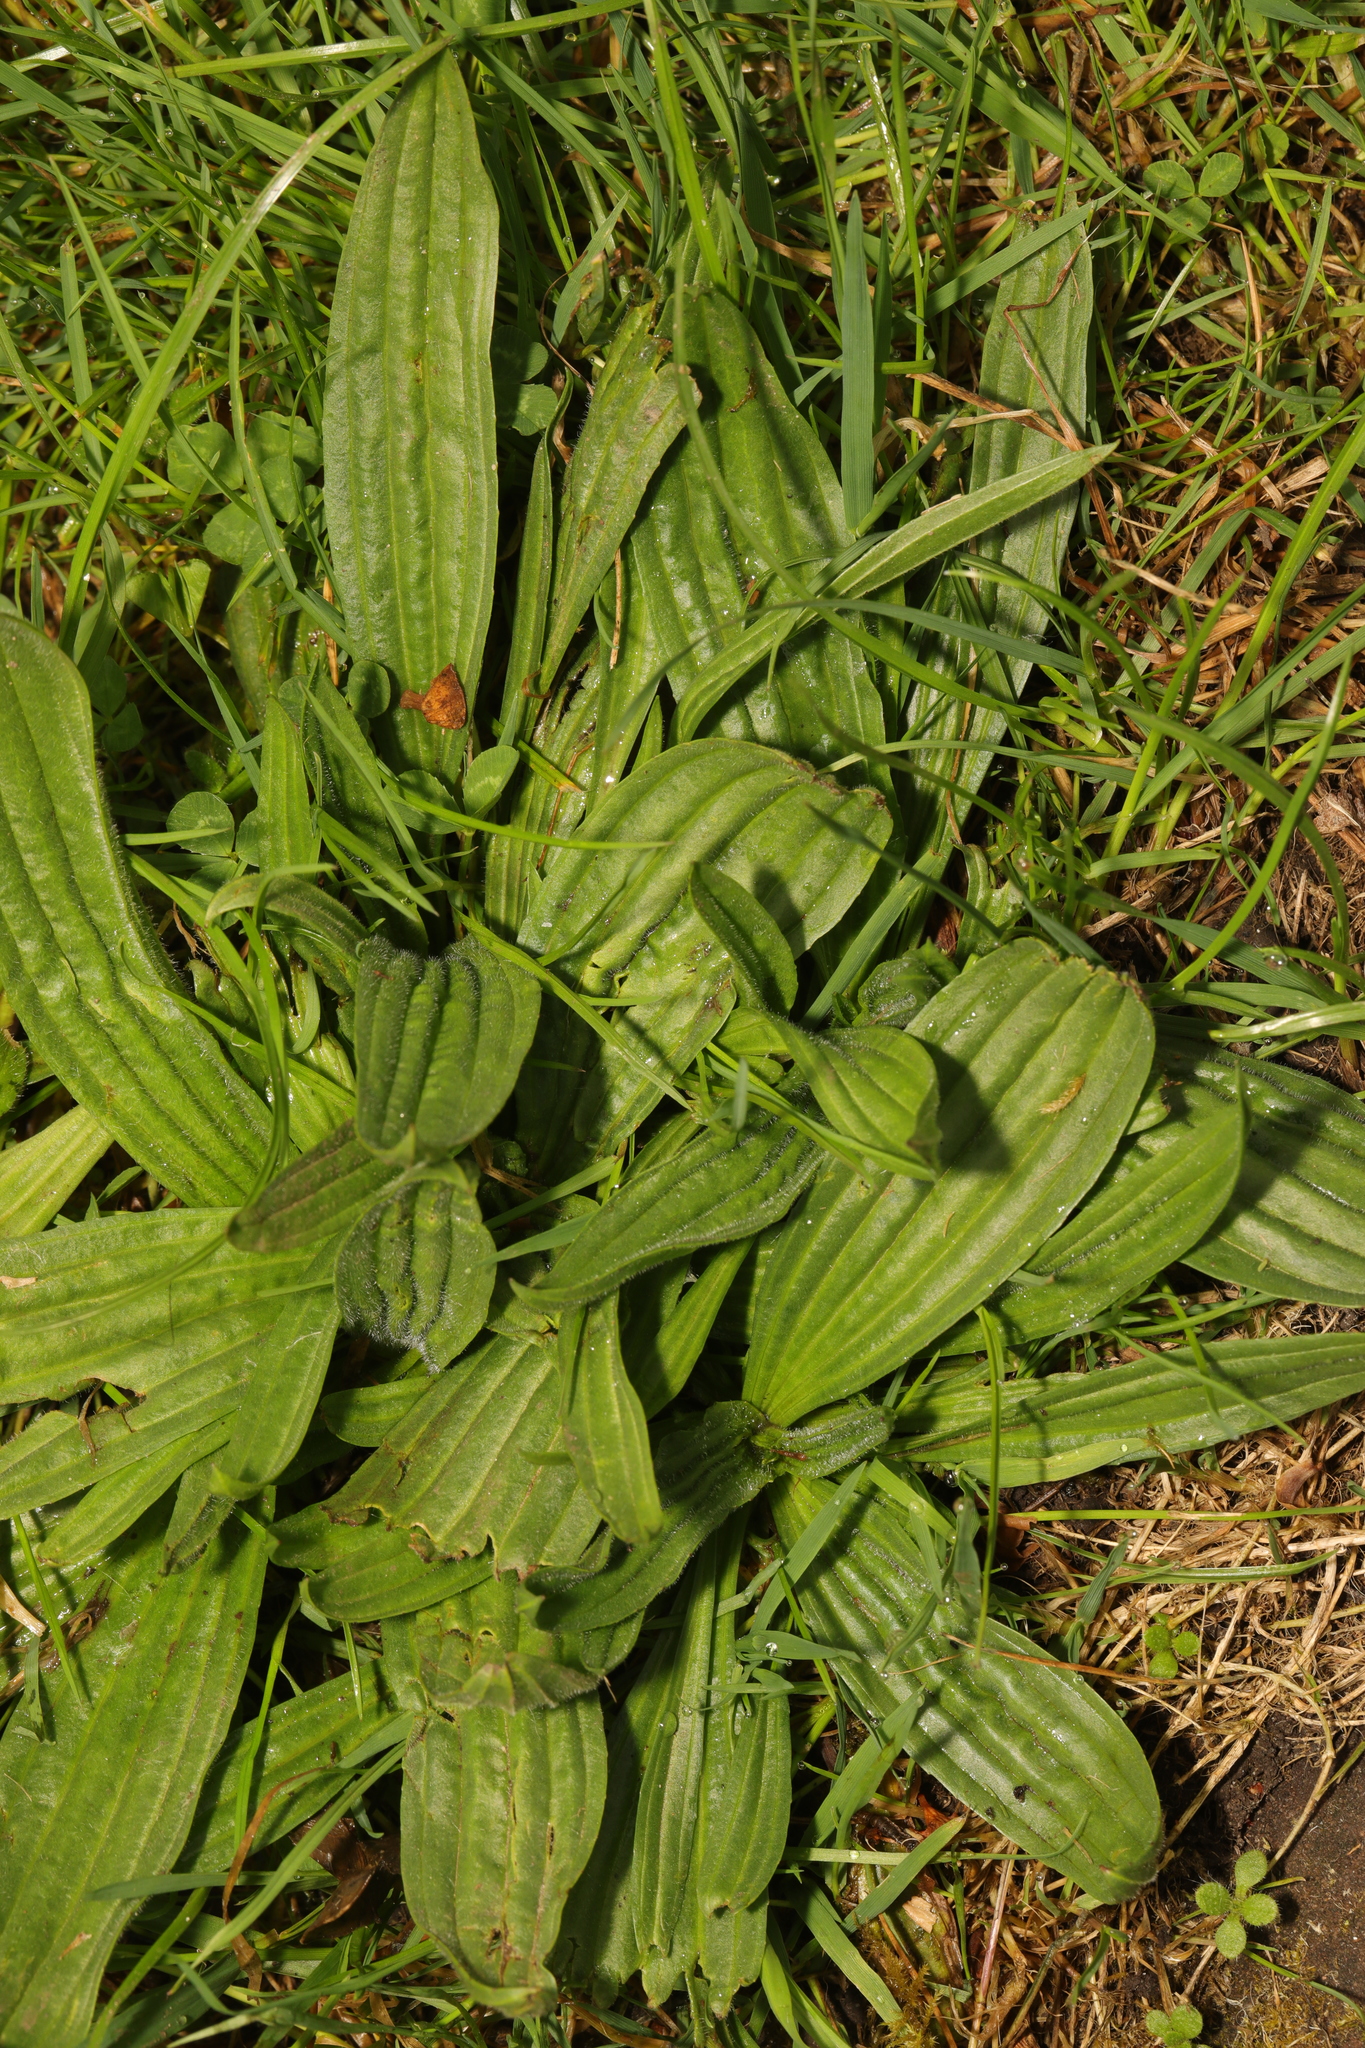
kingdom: Plantae
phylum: Tracheophyta
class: Magnoliopsida
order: Lamiales
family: Plantaginaceae
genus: Plantago
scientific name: Plantago lanceolata
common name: Ribwort plantain
